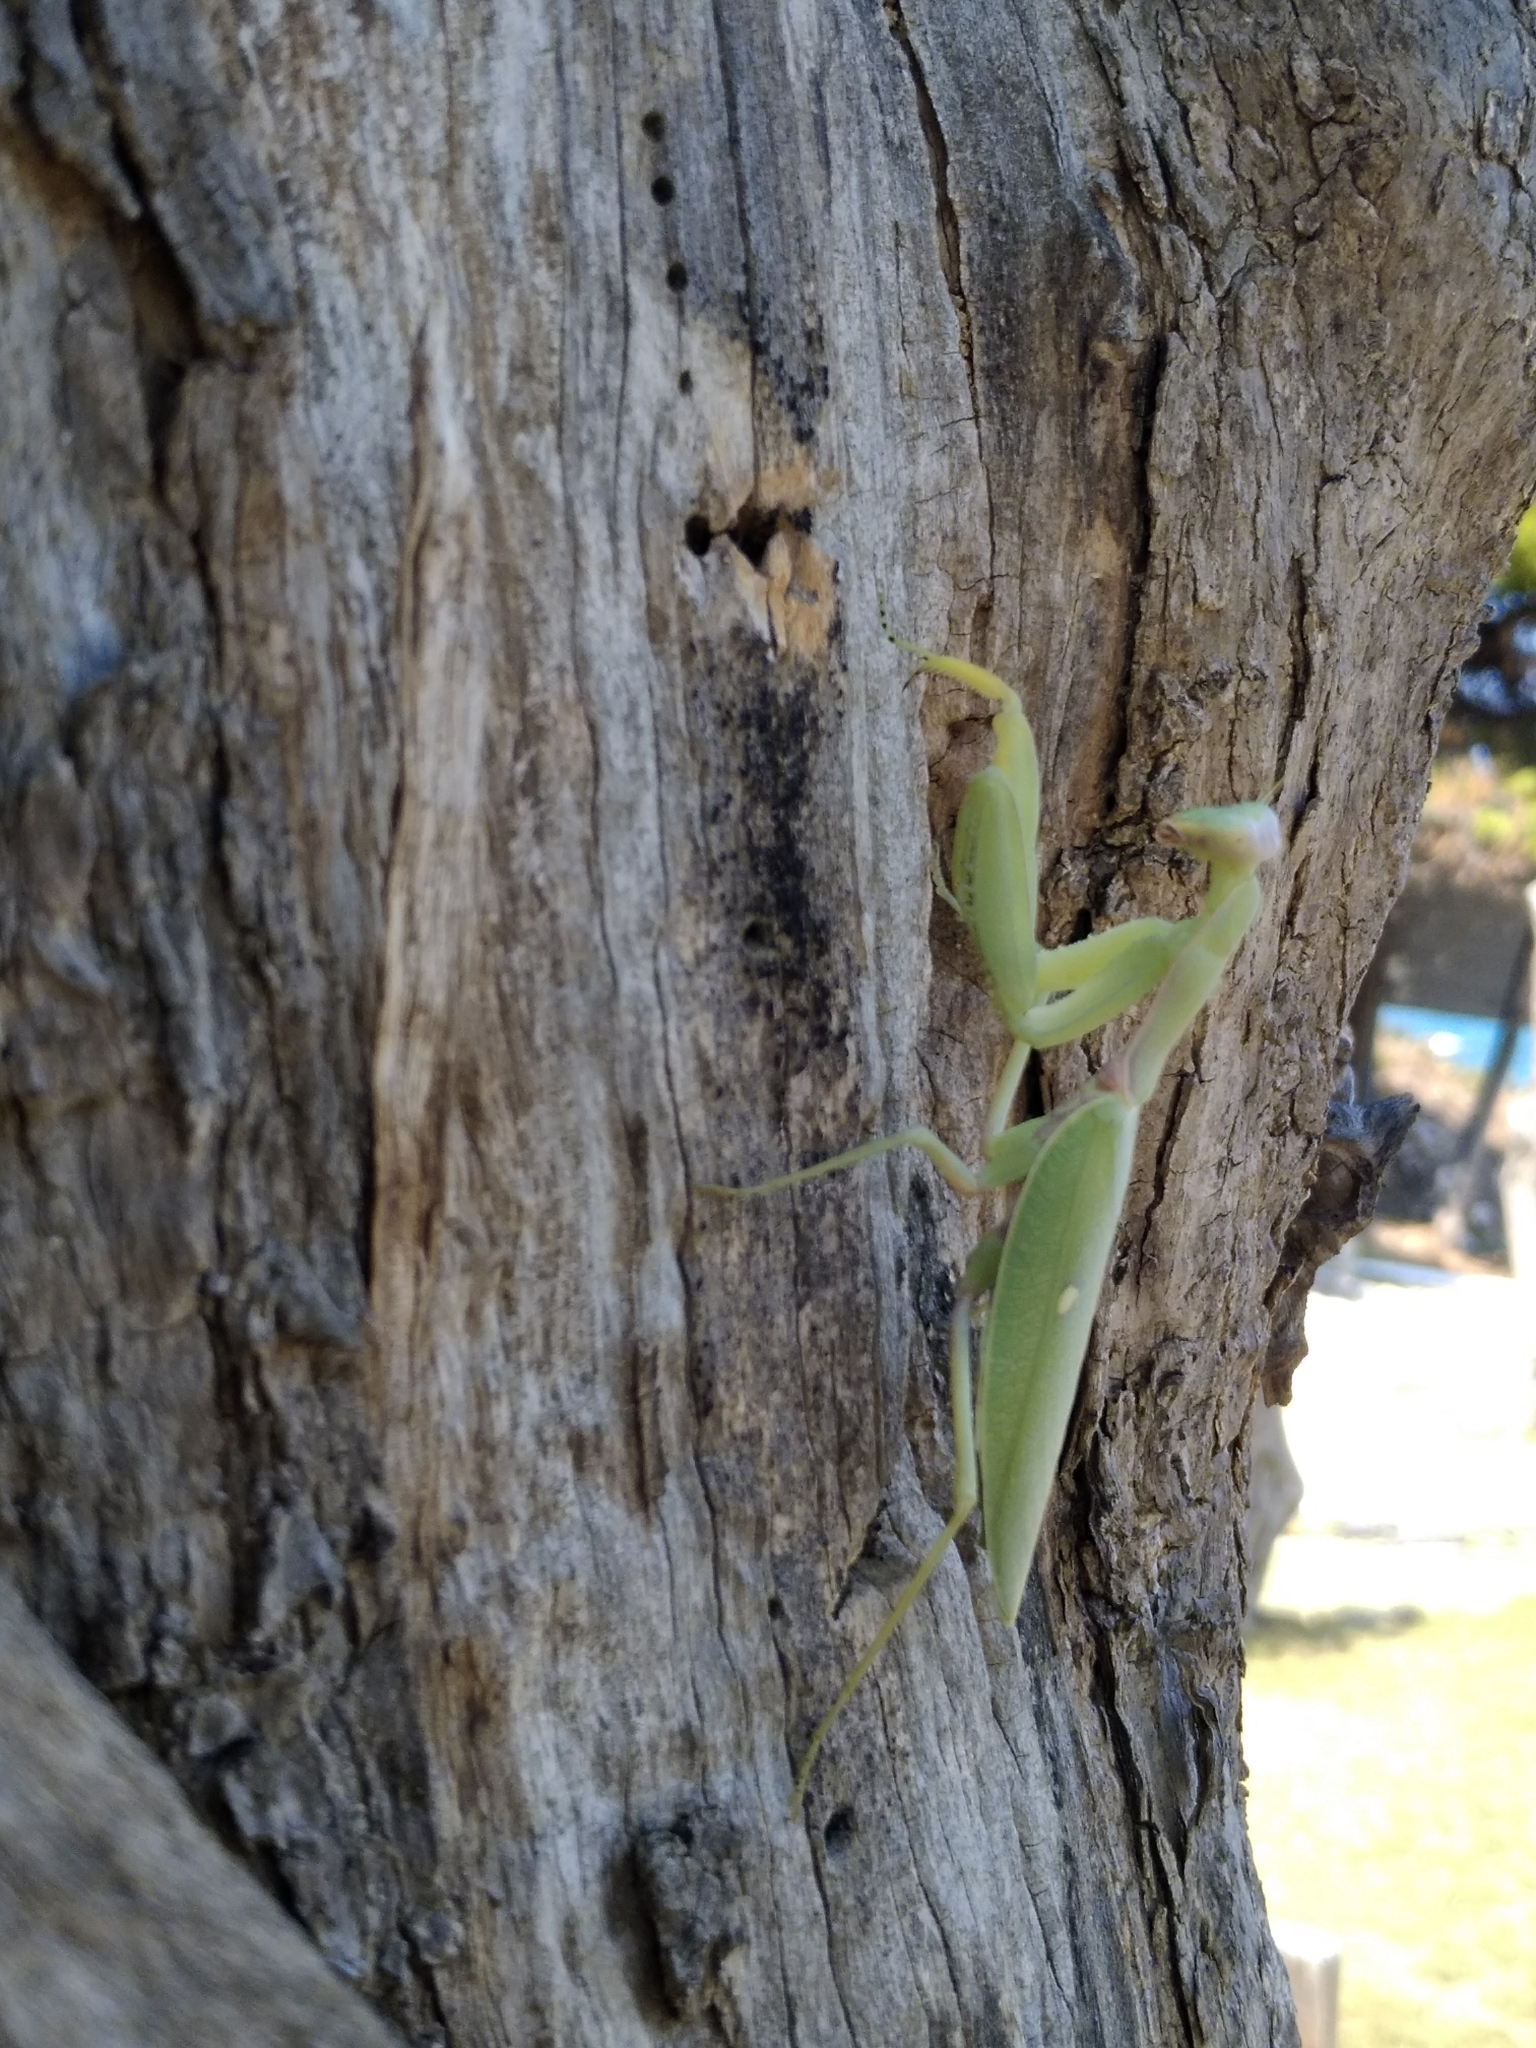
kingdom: Animalia
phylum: Arthropoda
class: Insecta
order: Mantodea
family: Mantidae
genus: Hierodula
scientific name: Hierodula transcaucasica
